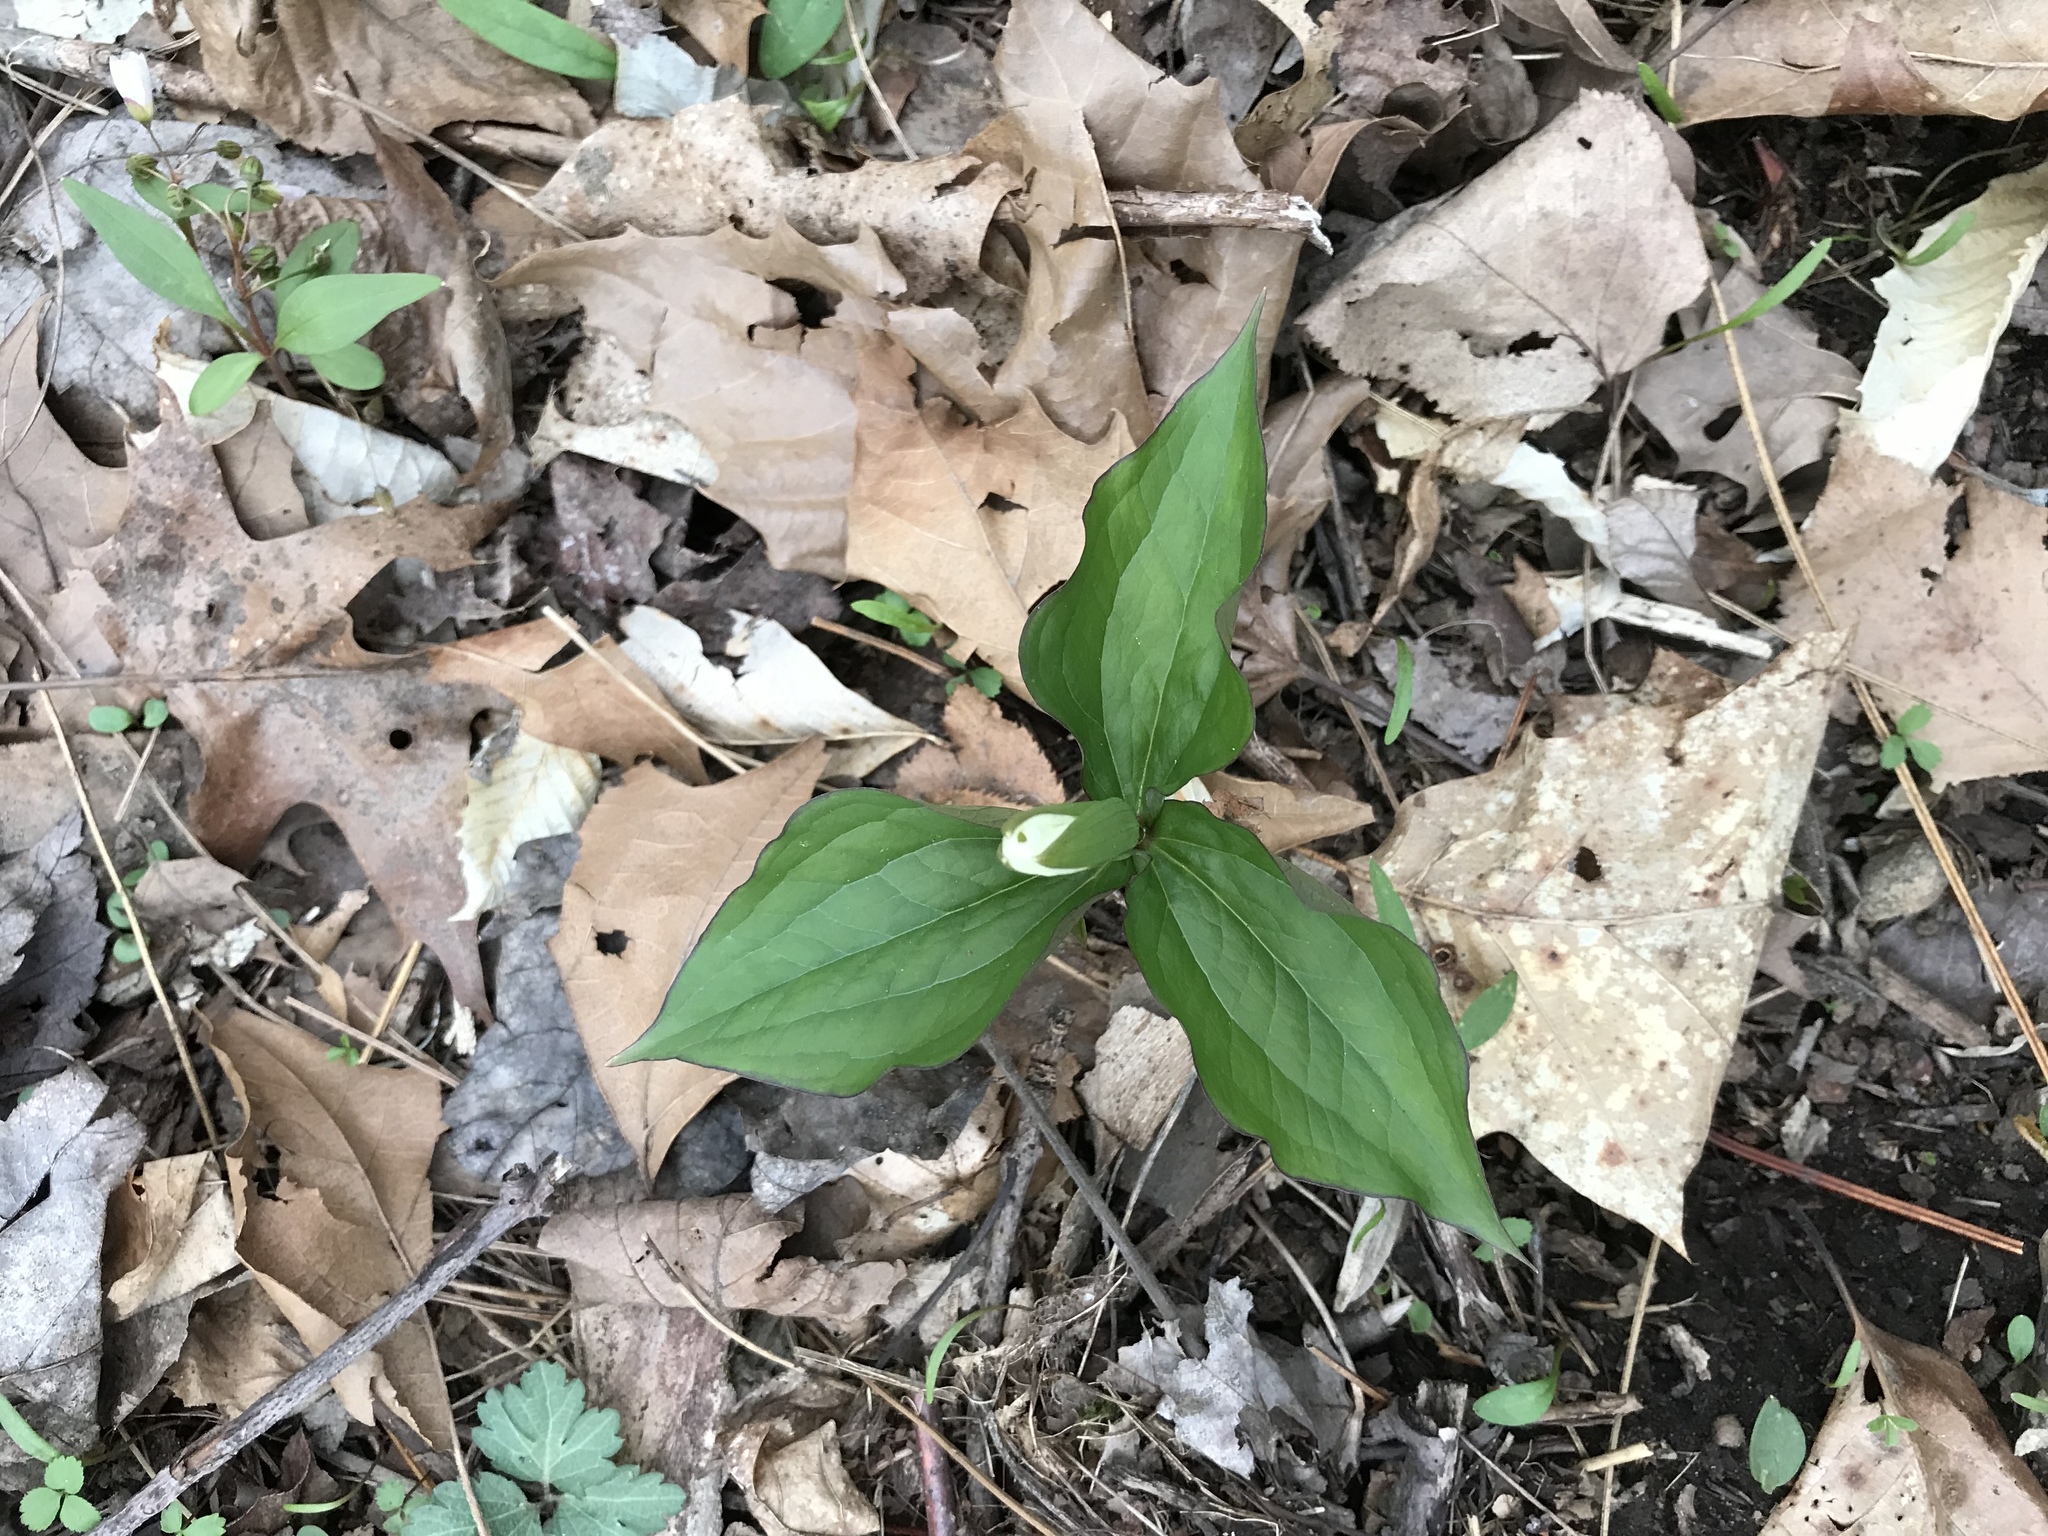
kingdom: Plantae
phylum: Tracheophyta
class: Liliopsida
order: Liliales
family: Melanthiaceae
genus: Trillium
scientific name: Trillium grandiflorum
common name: Great white trillium
